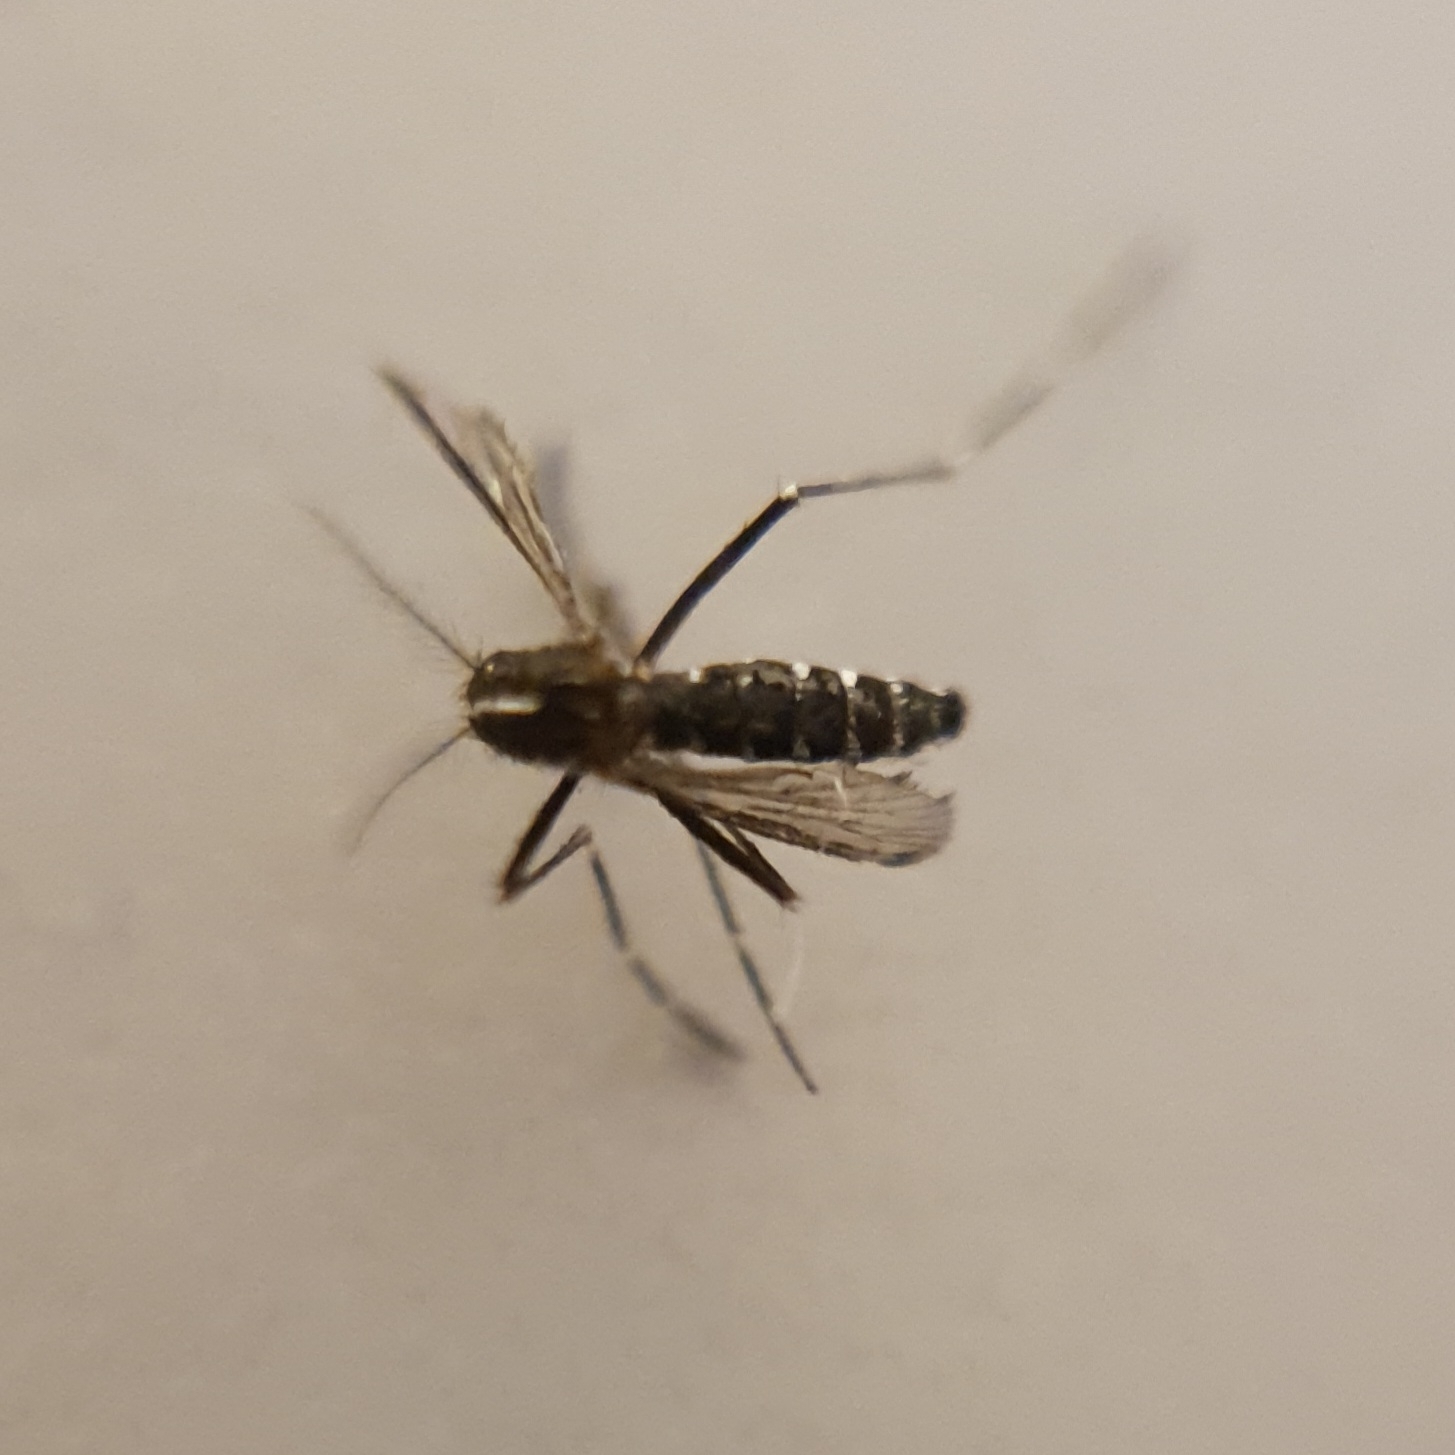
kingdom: Animalia
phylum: Arthropoda
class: Insecta
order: Diptera
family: Culicidae
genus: Aedes
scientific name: Aedes albopictus
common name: Tiger mosquito
